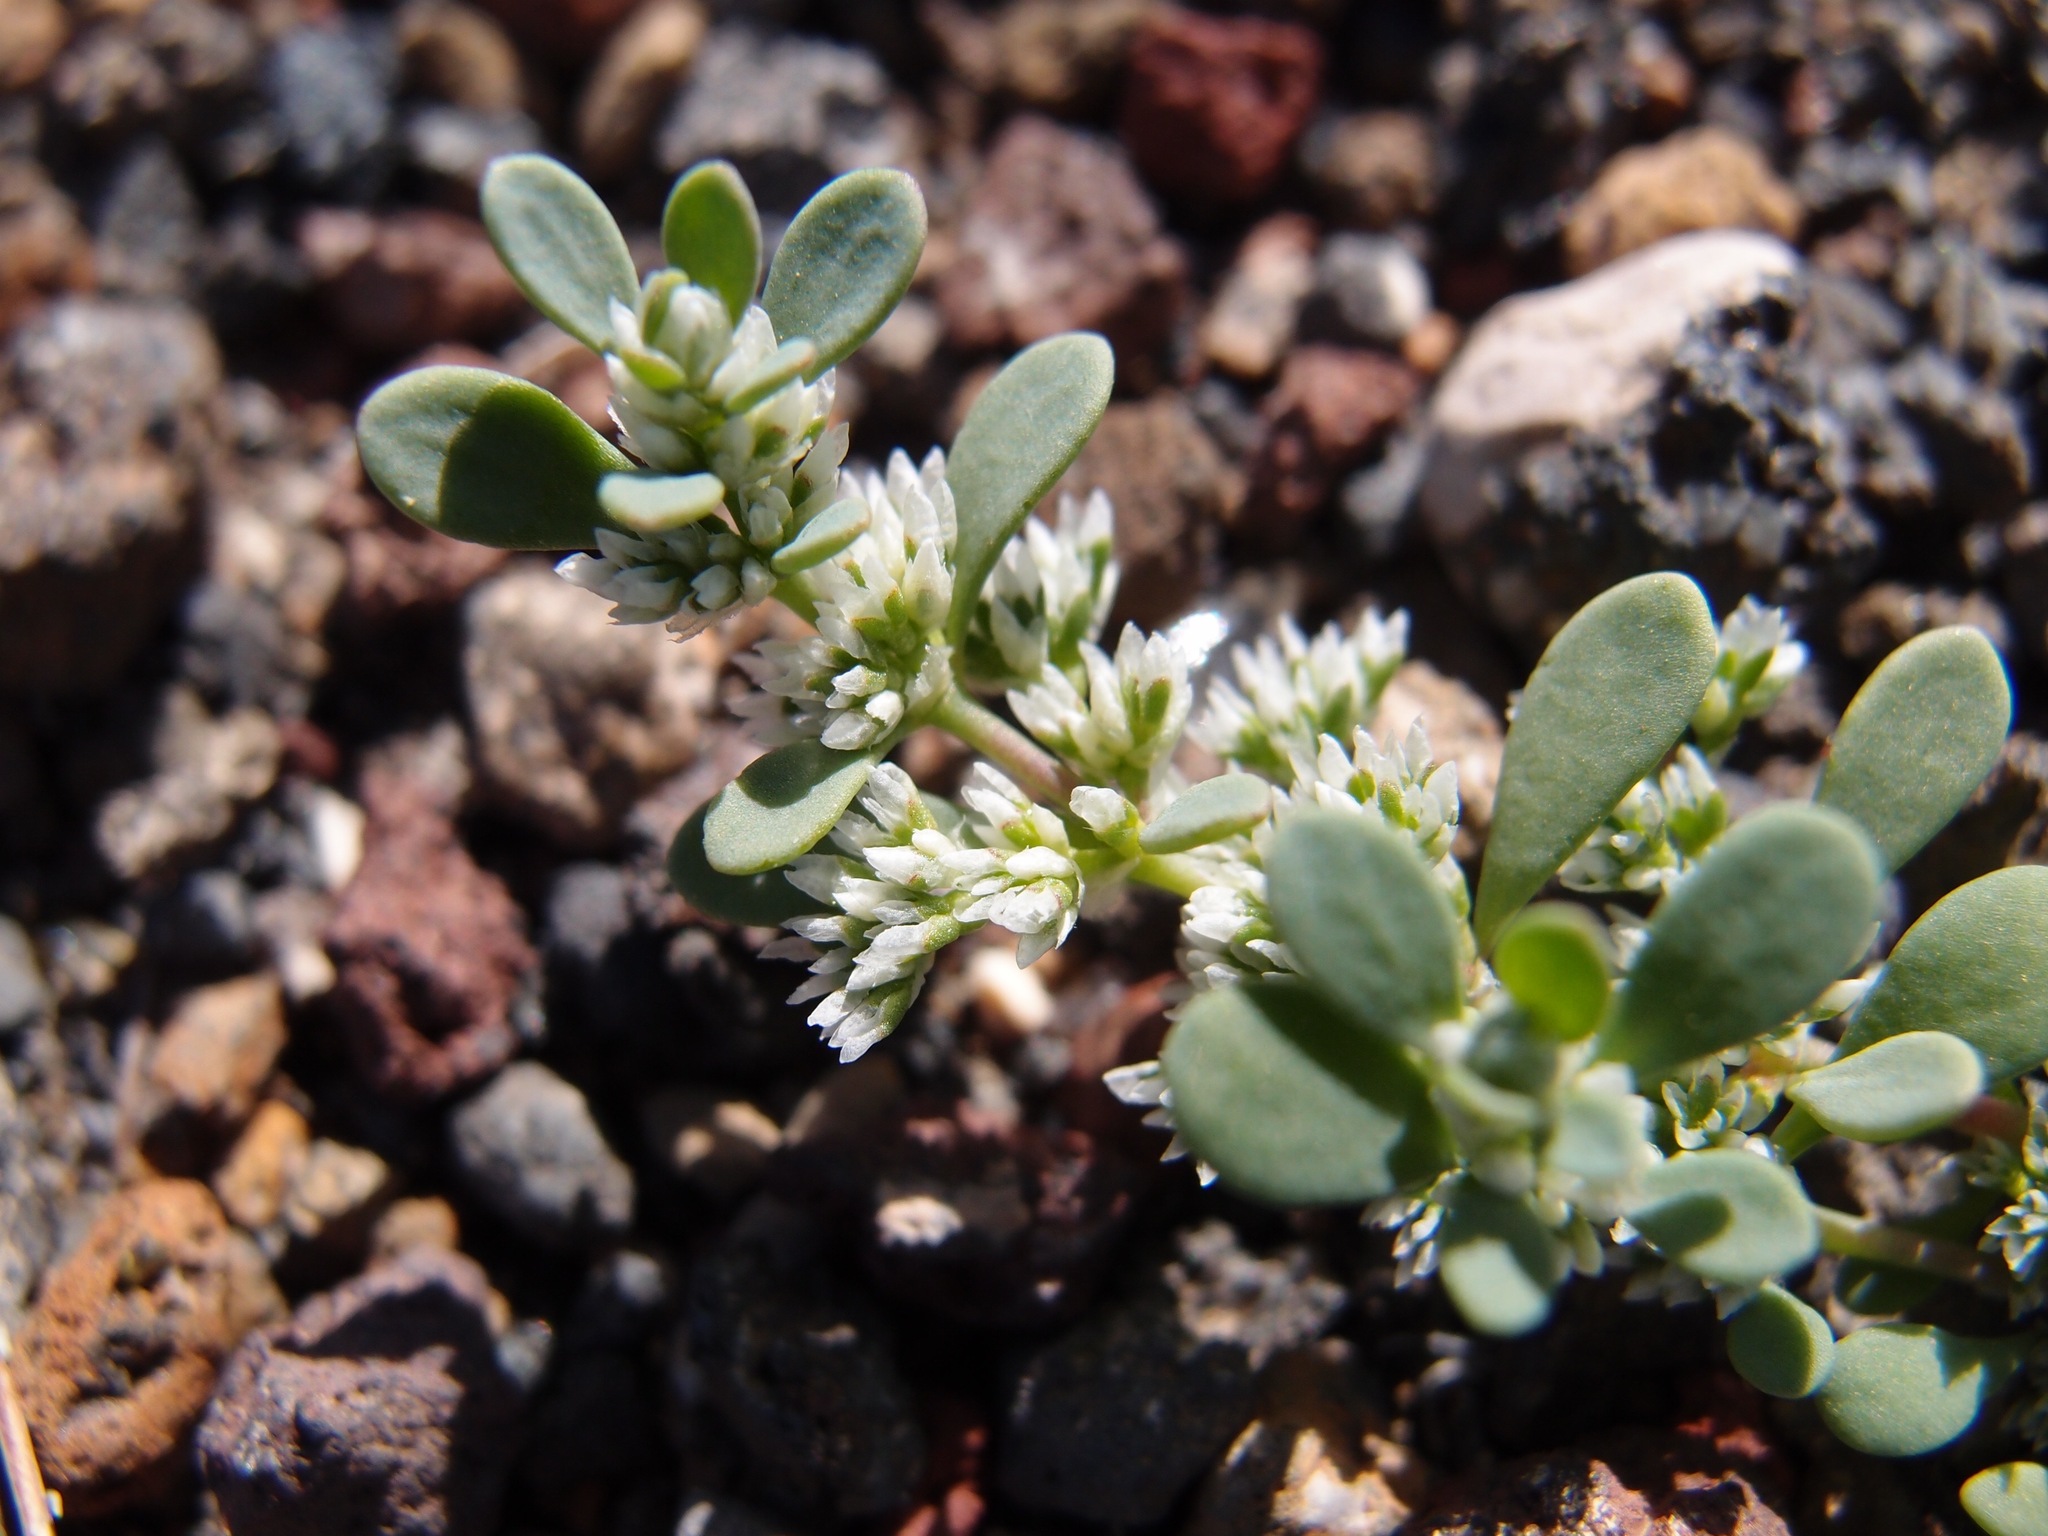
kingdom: Plantae
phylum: Tracheophyta
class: Magnoliopsida
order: Caryophyllales
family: Caryophyllaceae
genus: Achyronychia
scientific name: Achyronychia cooperi
